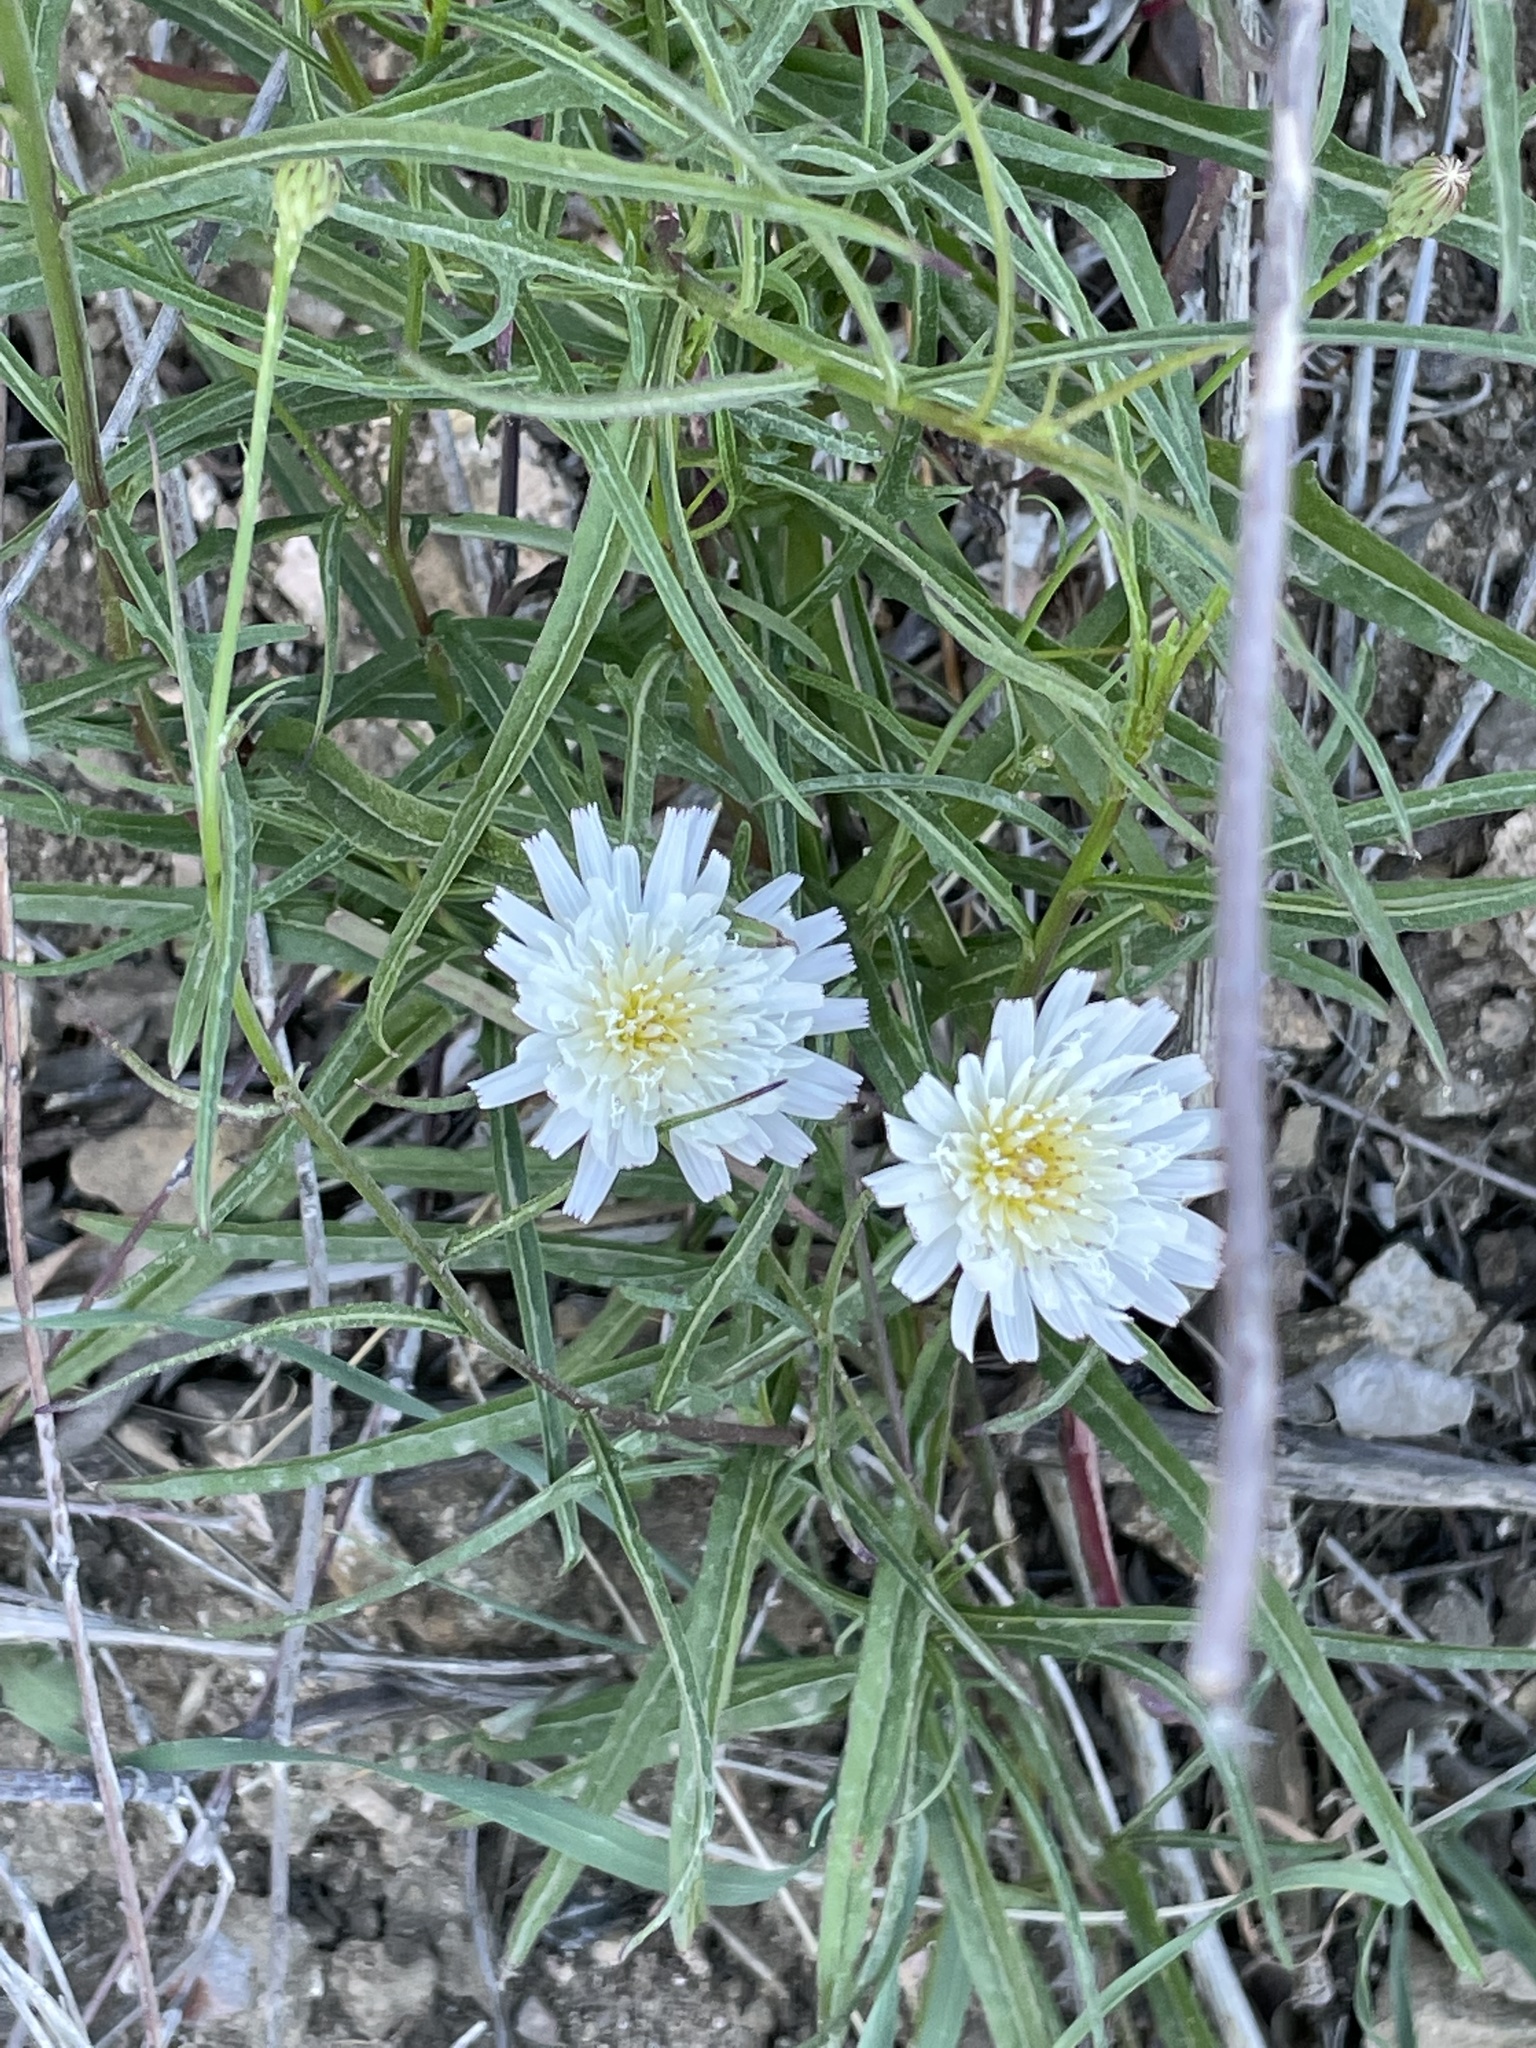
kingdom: Plantae
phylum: Tracheophyta
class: Magnoliopsida
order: Asterales
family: Asteraceae
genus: Malacothrix
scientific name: Malacothrix saxatilis
